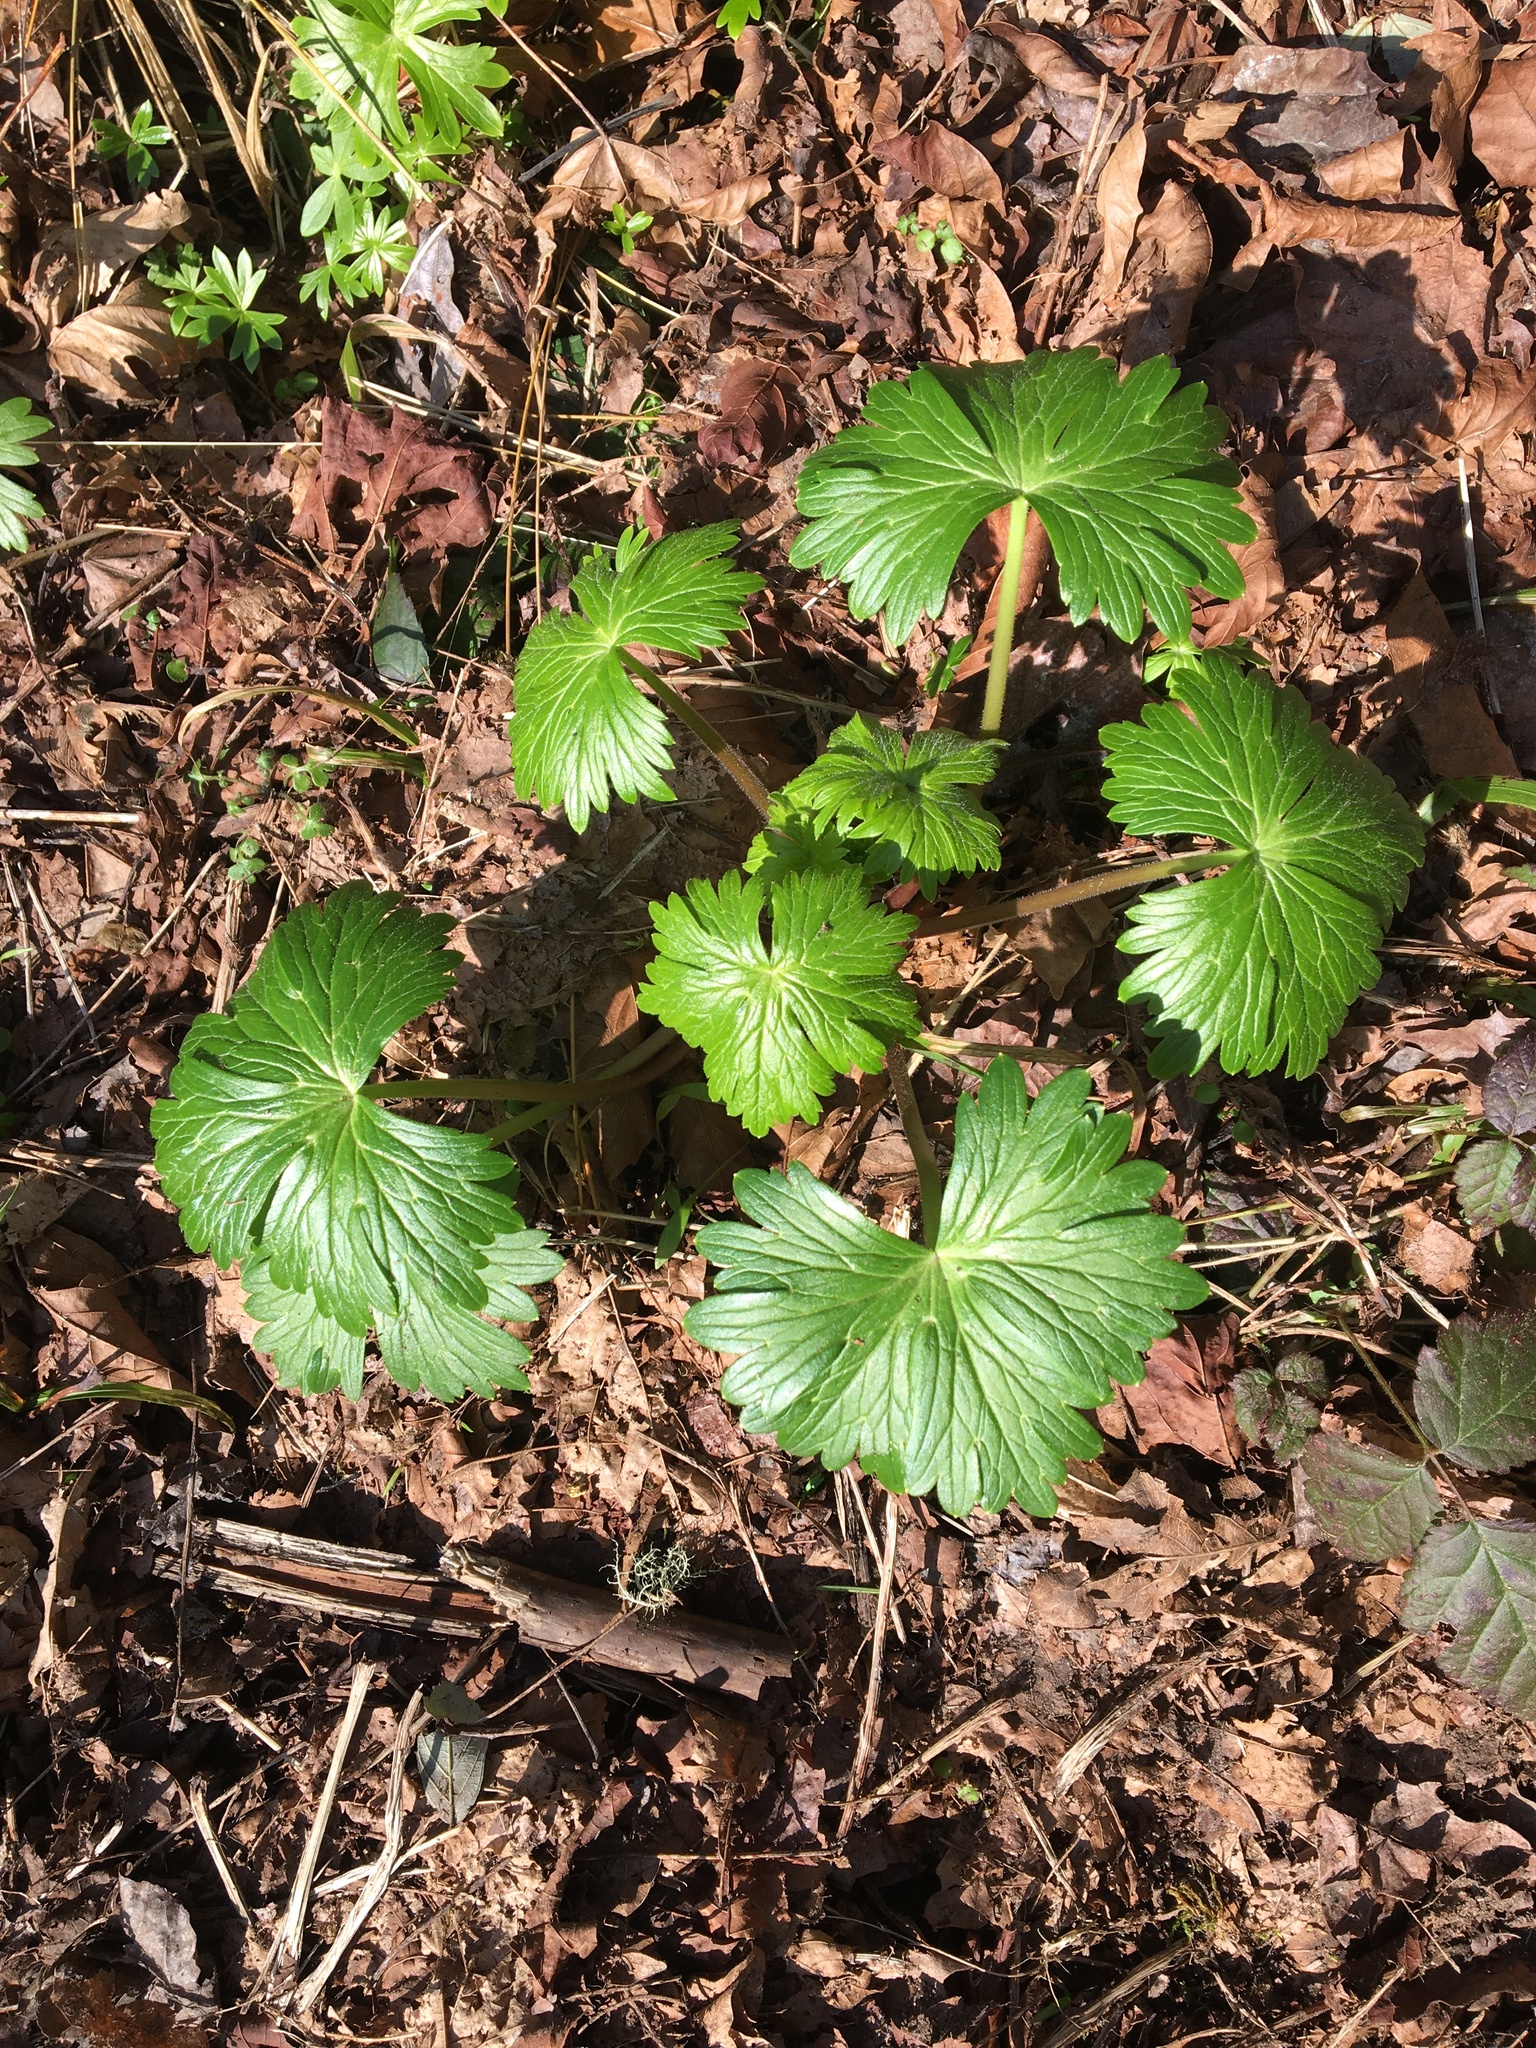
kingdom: Plantae
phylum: Tracheophyta
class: Magnoliopsida
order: Ranunculales
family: Ranunculaceae
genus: Delphinium
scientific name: Delphinium trolliifolium
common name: Cow-poison
